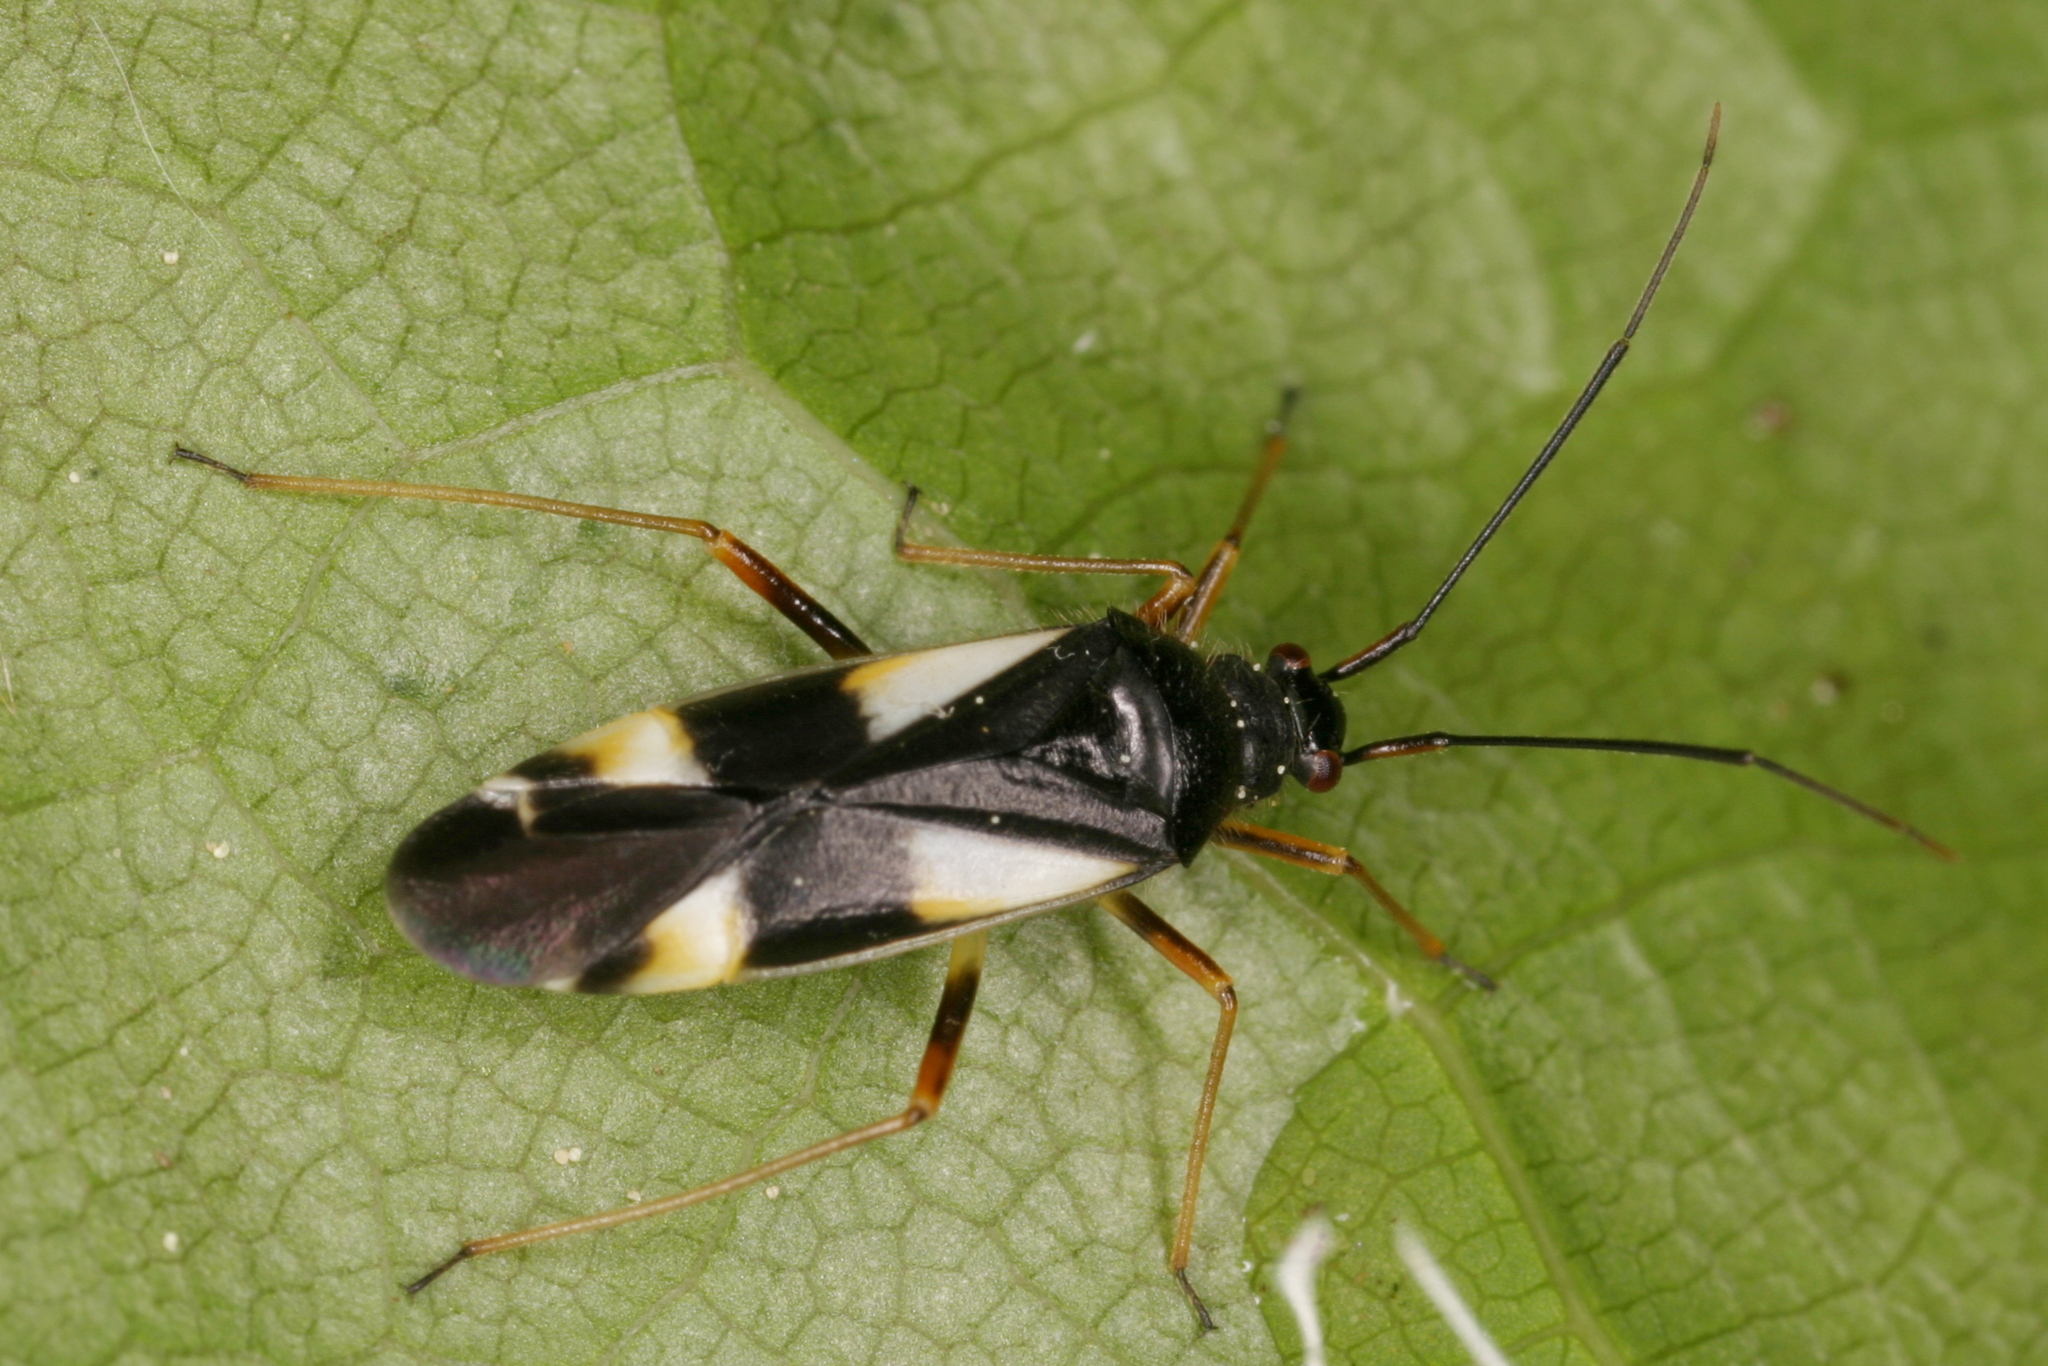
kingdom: Animalia
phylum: Arthropoda
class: Insecta
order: Hemiptera
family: Miridae
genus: Dryophilocoris
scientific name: Dryophilocoris flavoquadrimaculatus
